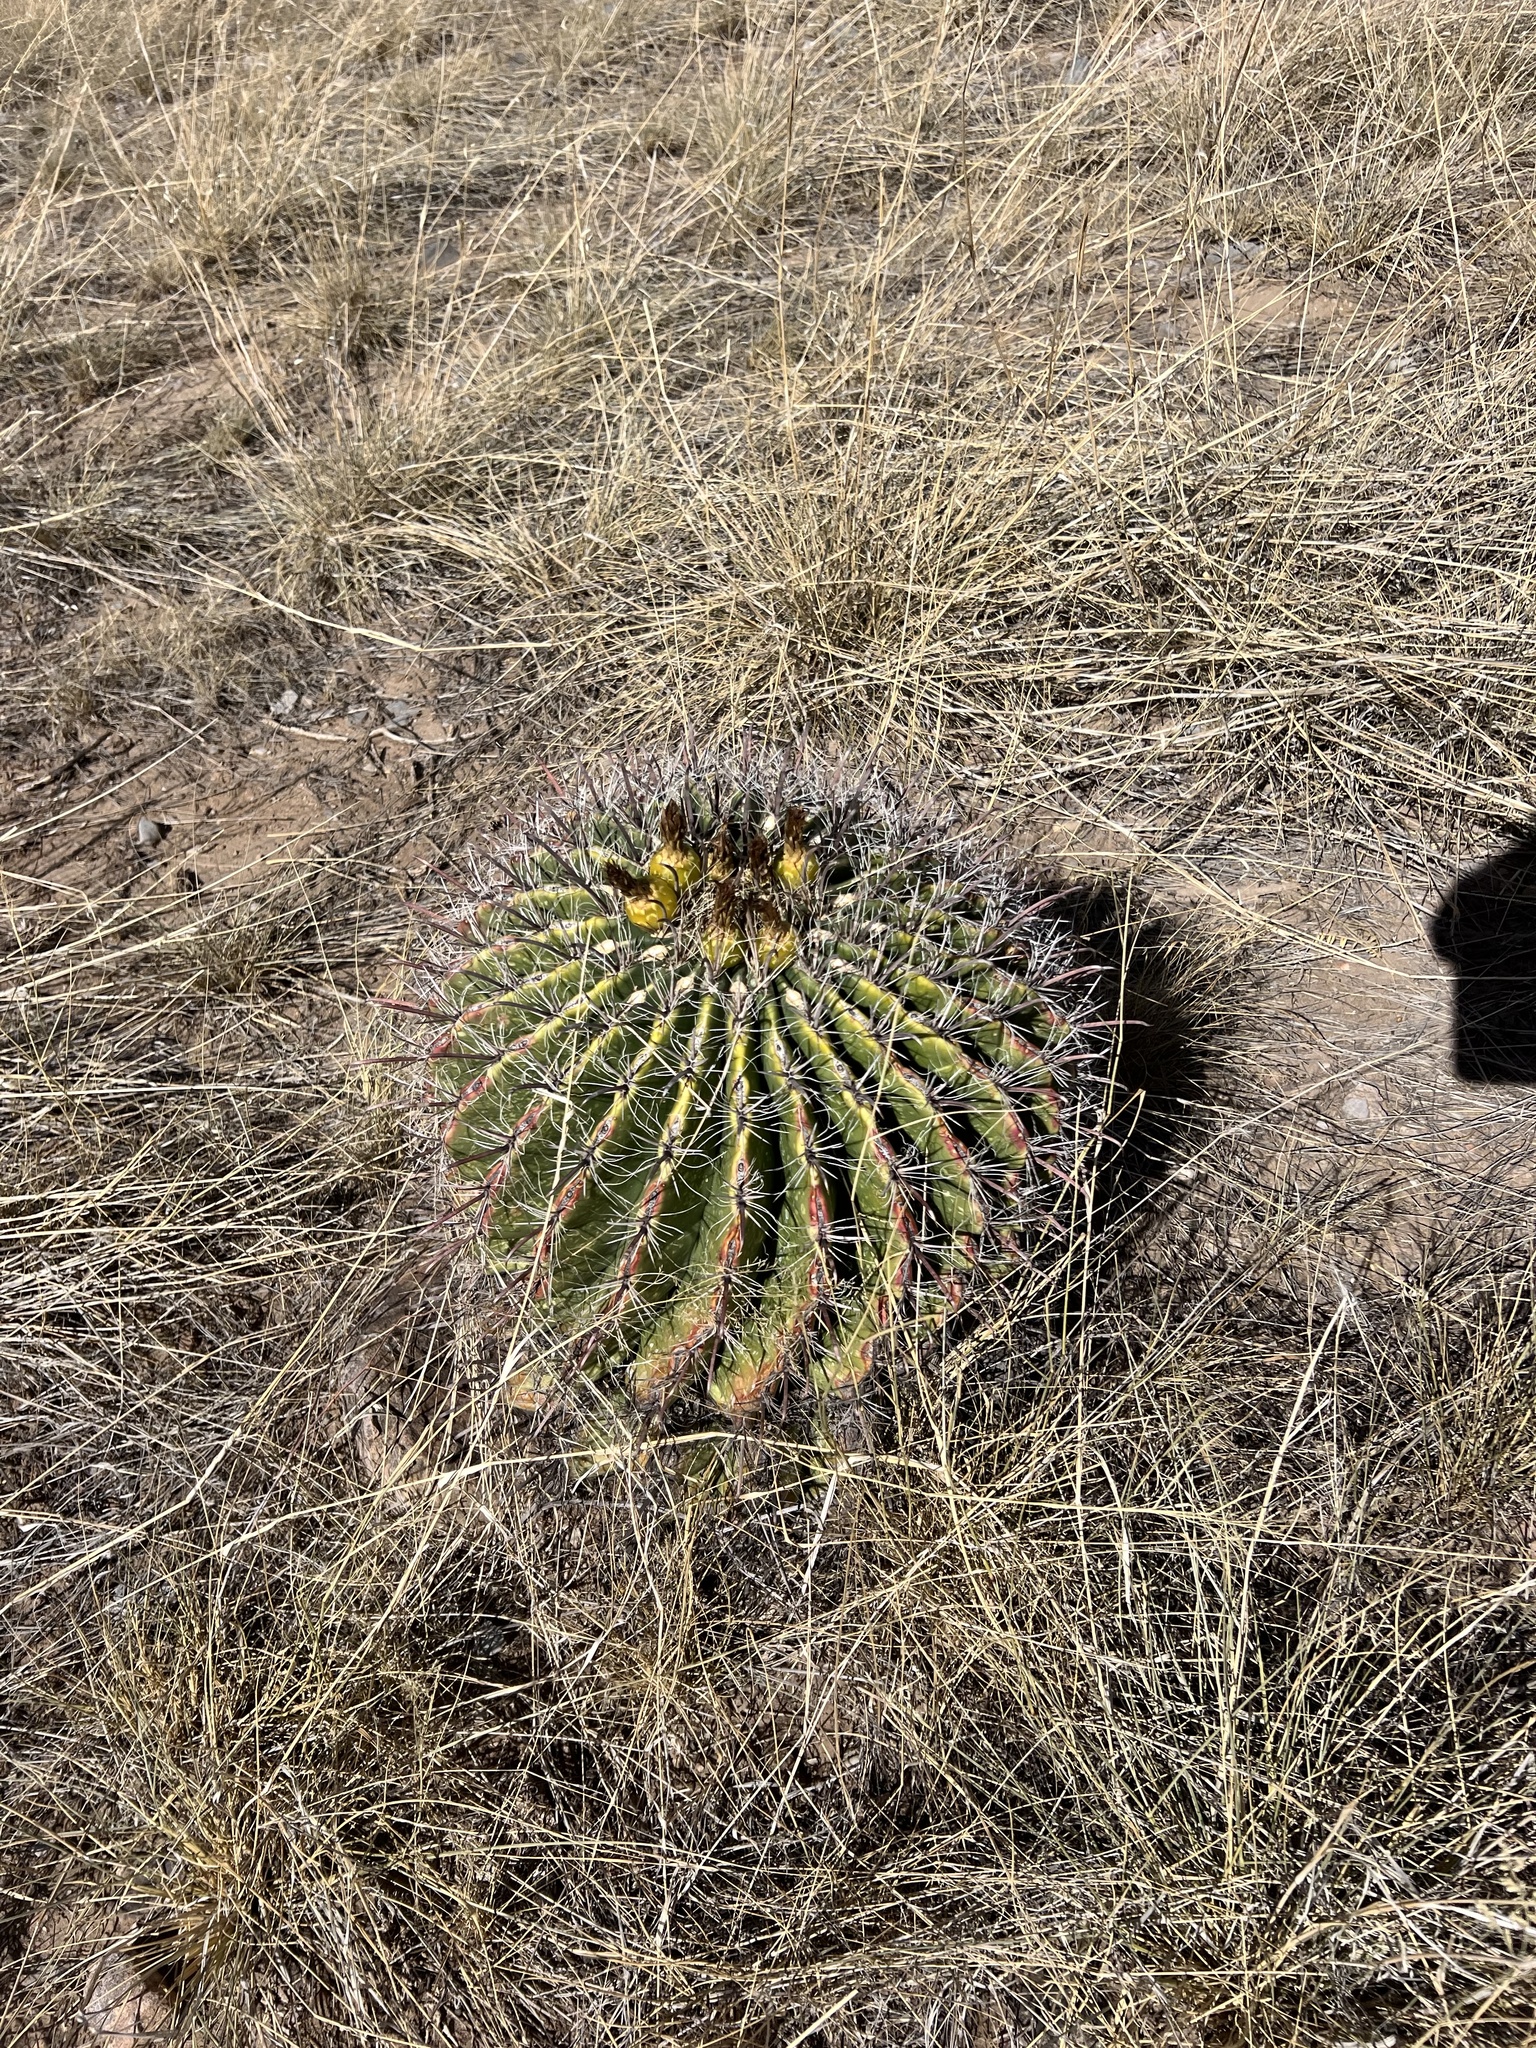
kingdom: Plantae
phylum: Tracheophyta
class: Magnoliopsida
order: Caryophyllales
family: Cactaceae
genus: Ferocactus
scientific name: Ferocactus wislizeni
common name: Candy barrel cactus
